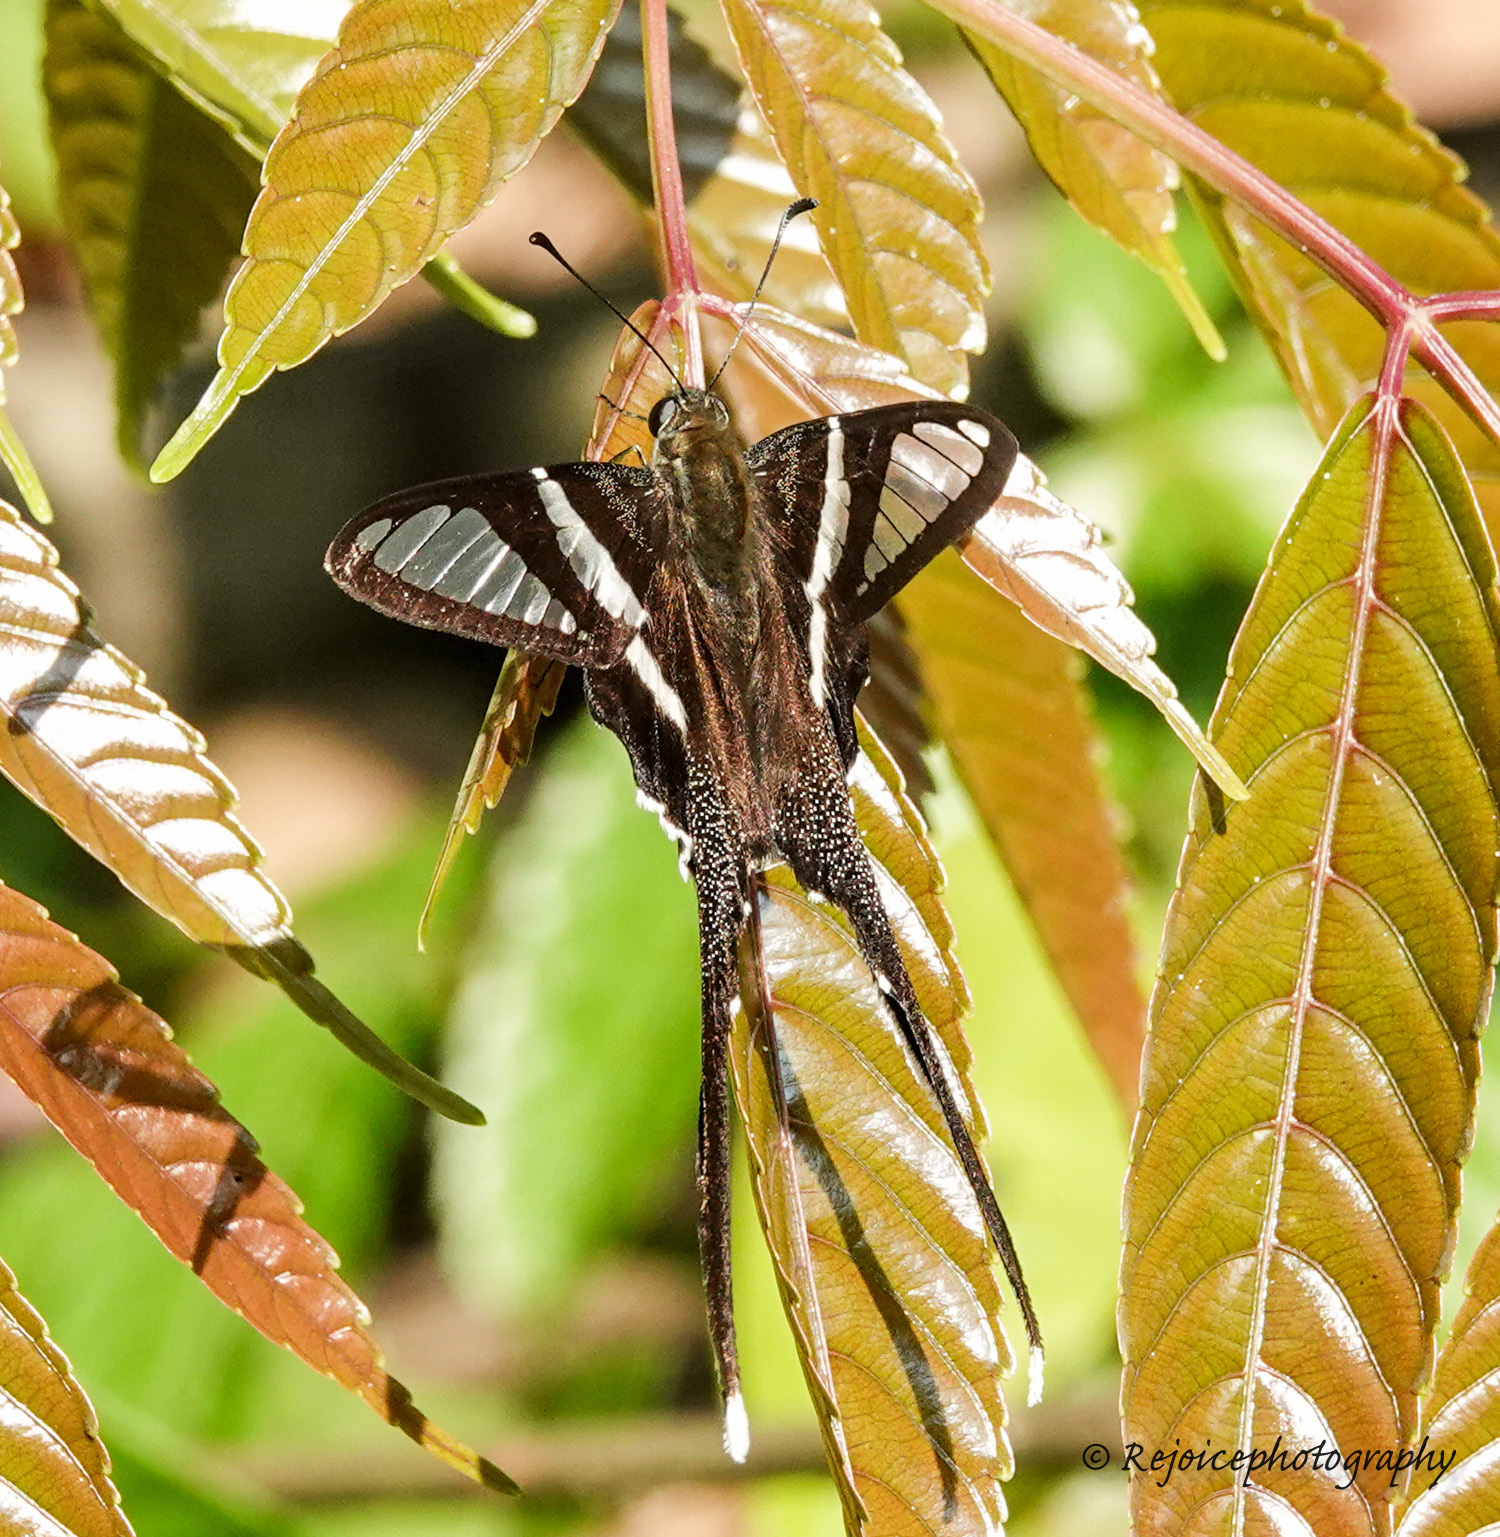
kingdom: Animalia
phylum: Arthropoda
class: Insecta
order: Lepidoptera
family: Papilionidae
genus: Lamproptera
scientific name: Lamproptera curius
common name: White dragontail
